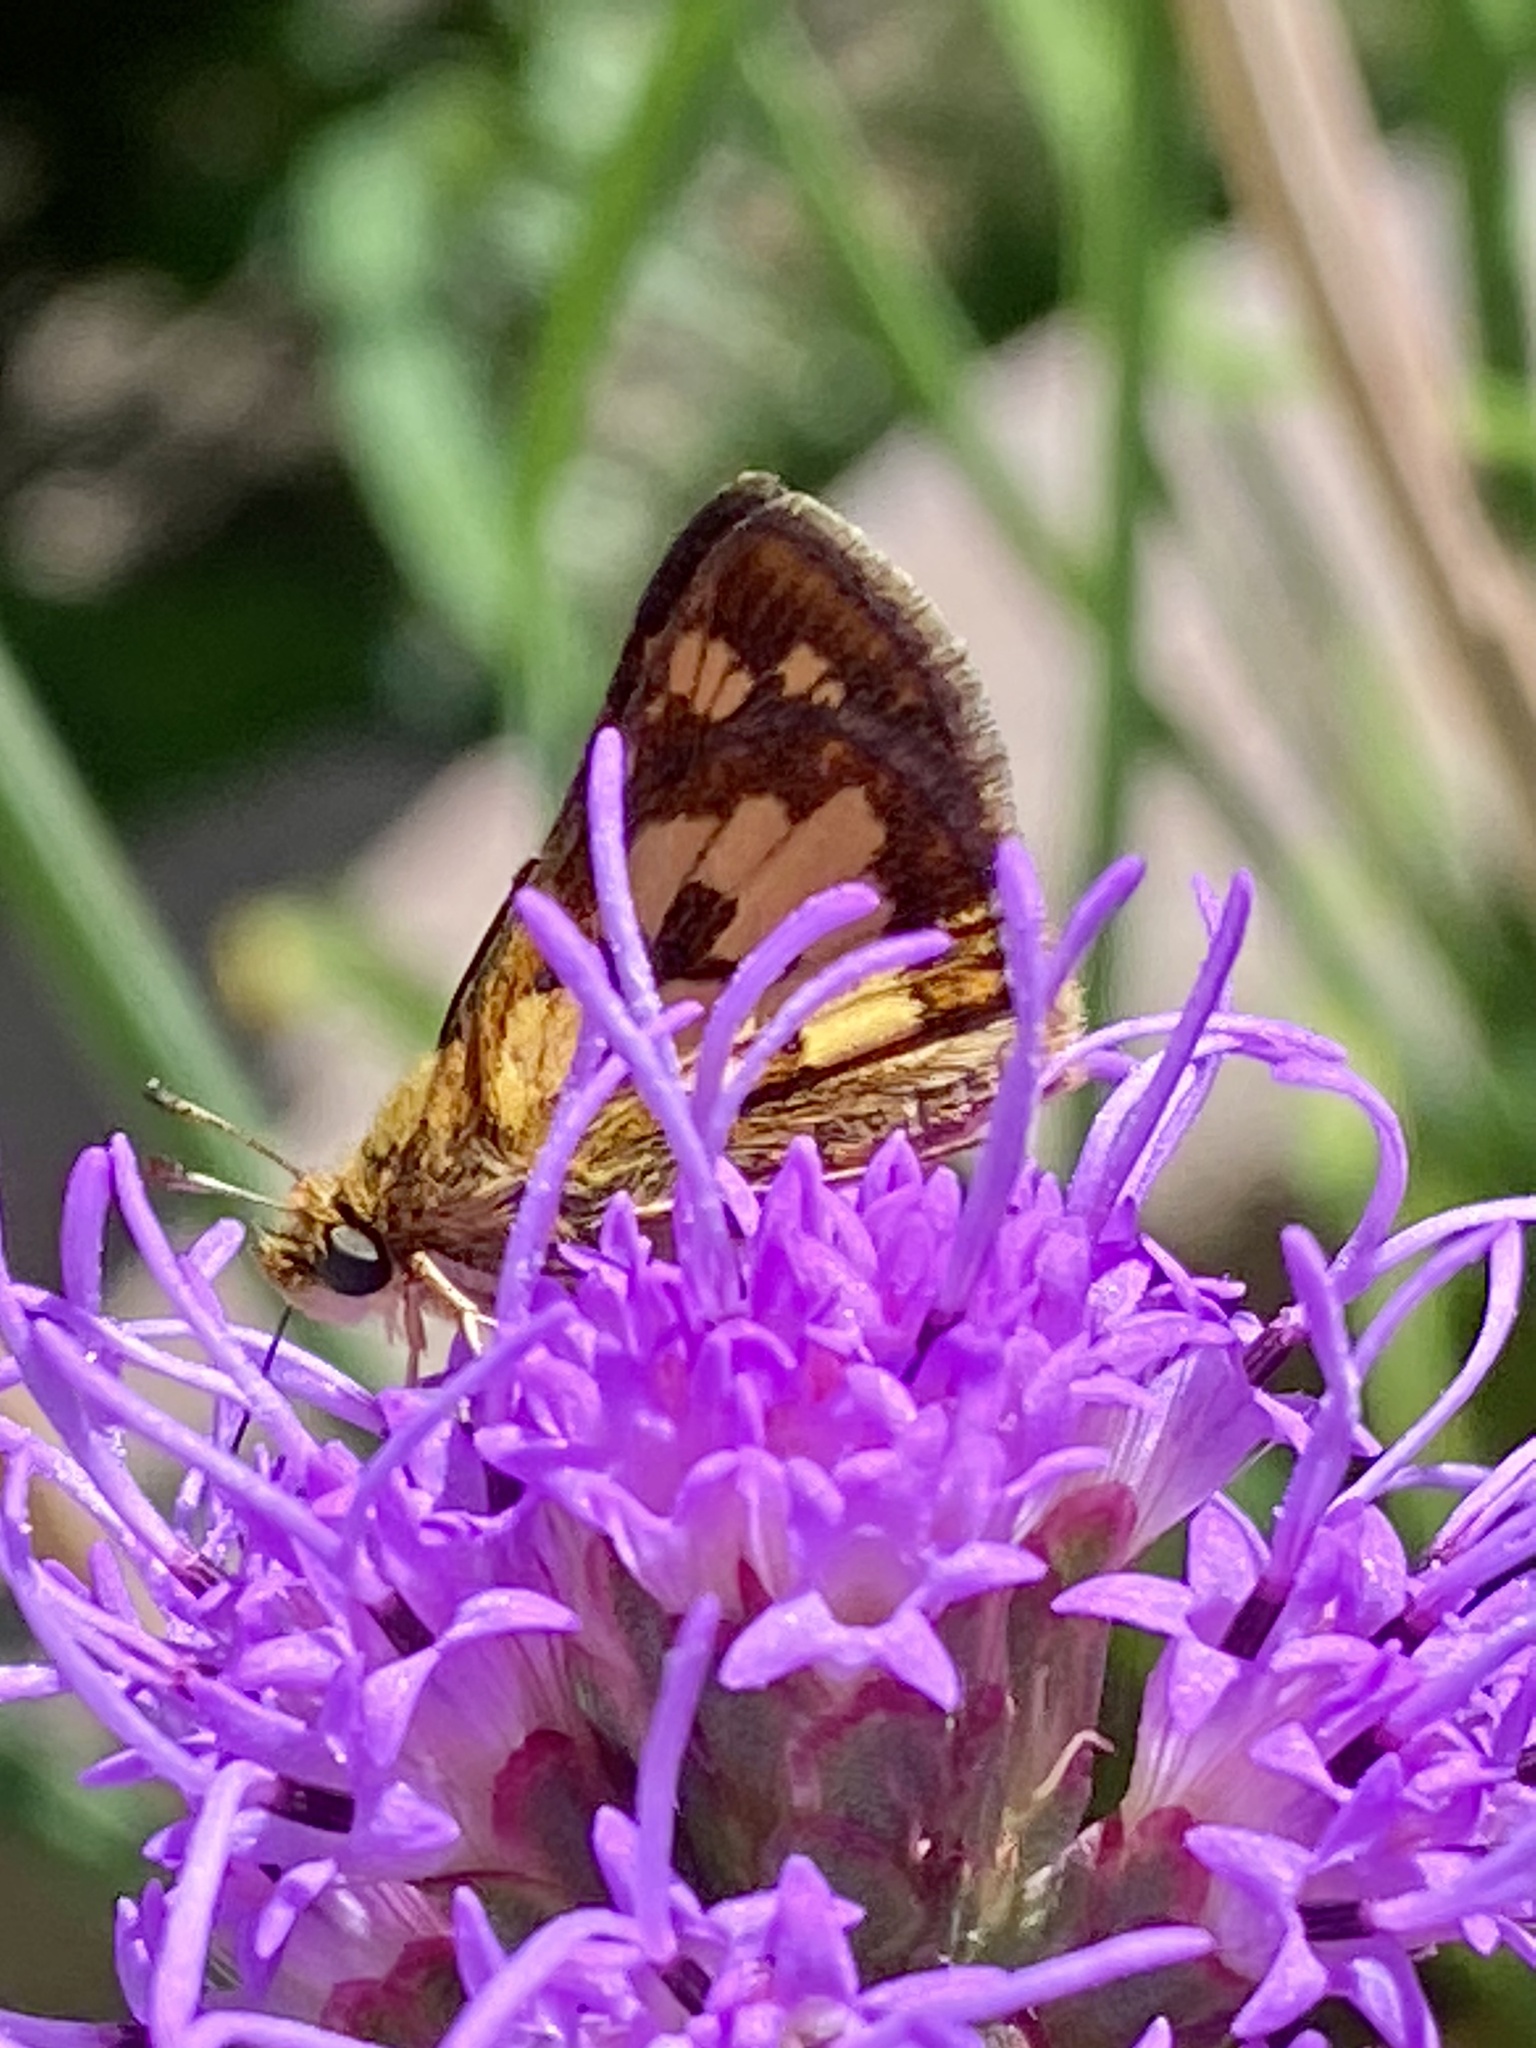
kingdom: Animalia
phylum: Arthropoda
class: Insecta
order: Lepidoptera
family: Hesperiidae
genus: Polites
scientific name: Polites coras
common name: Peck's skipper
